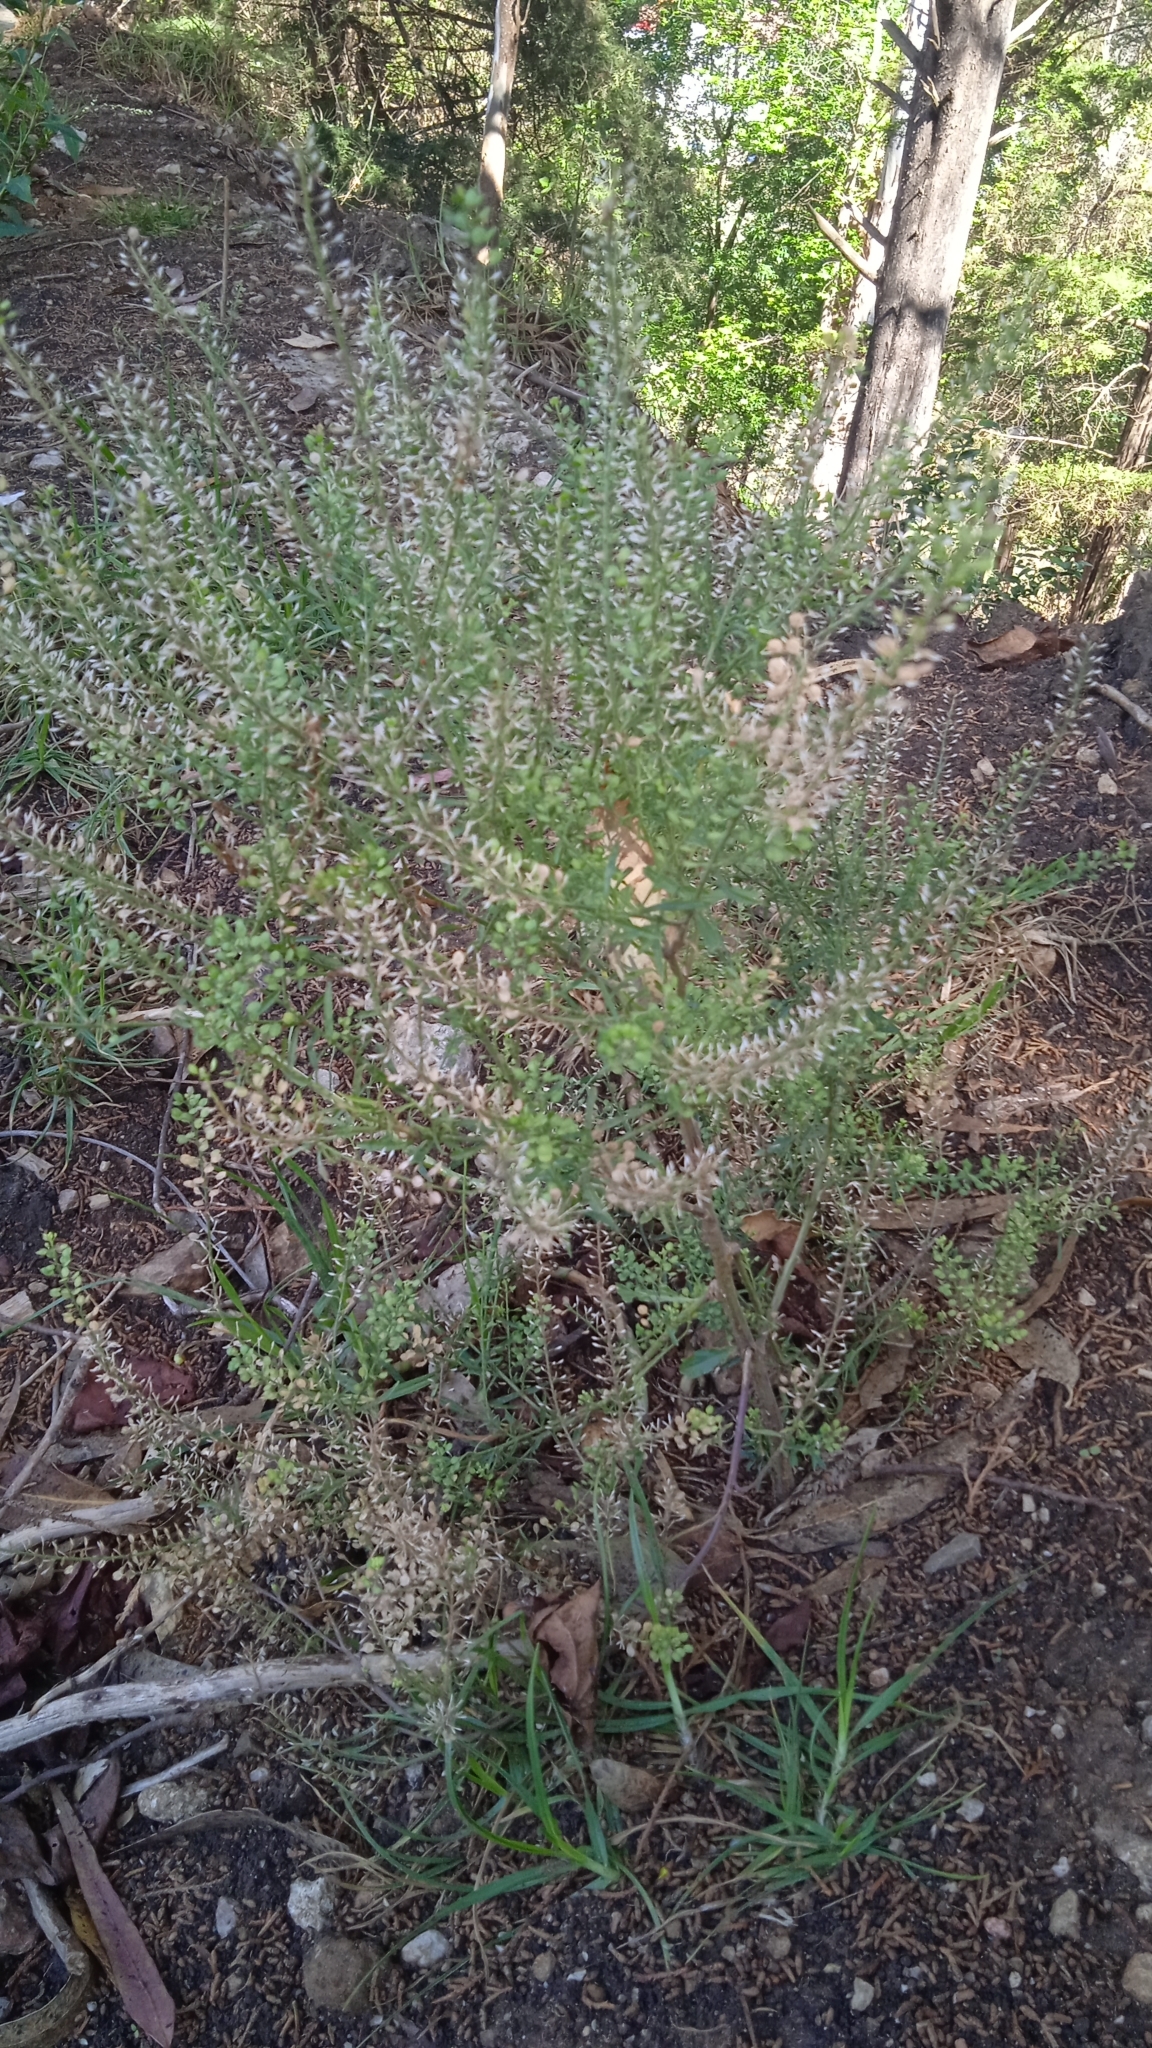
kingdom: Plantae
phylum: Tracheophyta
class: Magnoliopsida
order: Brassicales
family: Brassicaceae
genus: Lepidium
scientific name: Lepidium virginicum
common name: Least pepperwort
